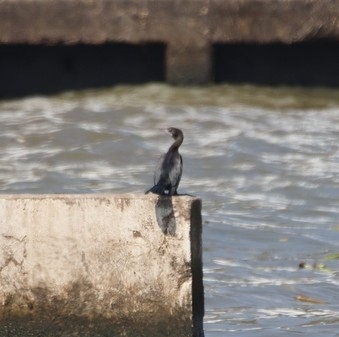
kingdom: Animalia
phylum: Chordata
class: Aves
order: Suliformes
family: Phalacrocoracidae
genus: Microcarbo
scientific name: Microcarbo niger
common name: Little cormorant
